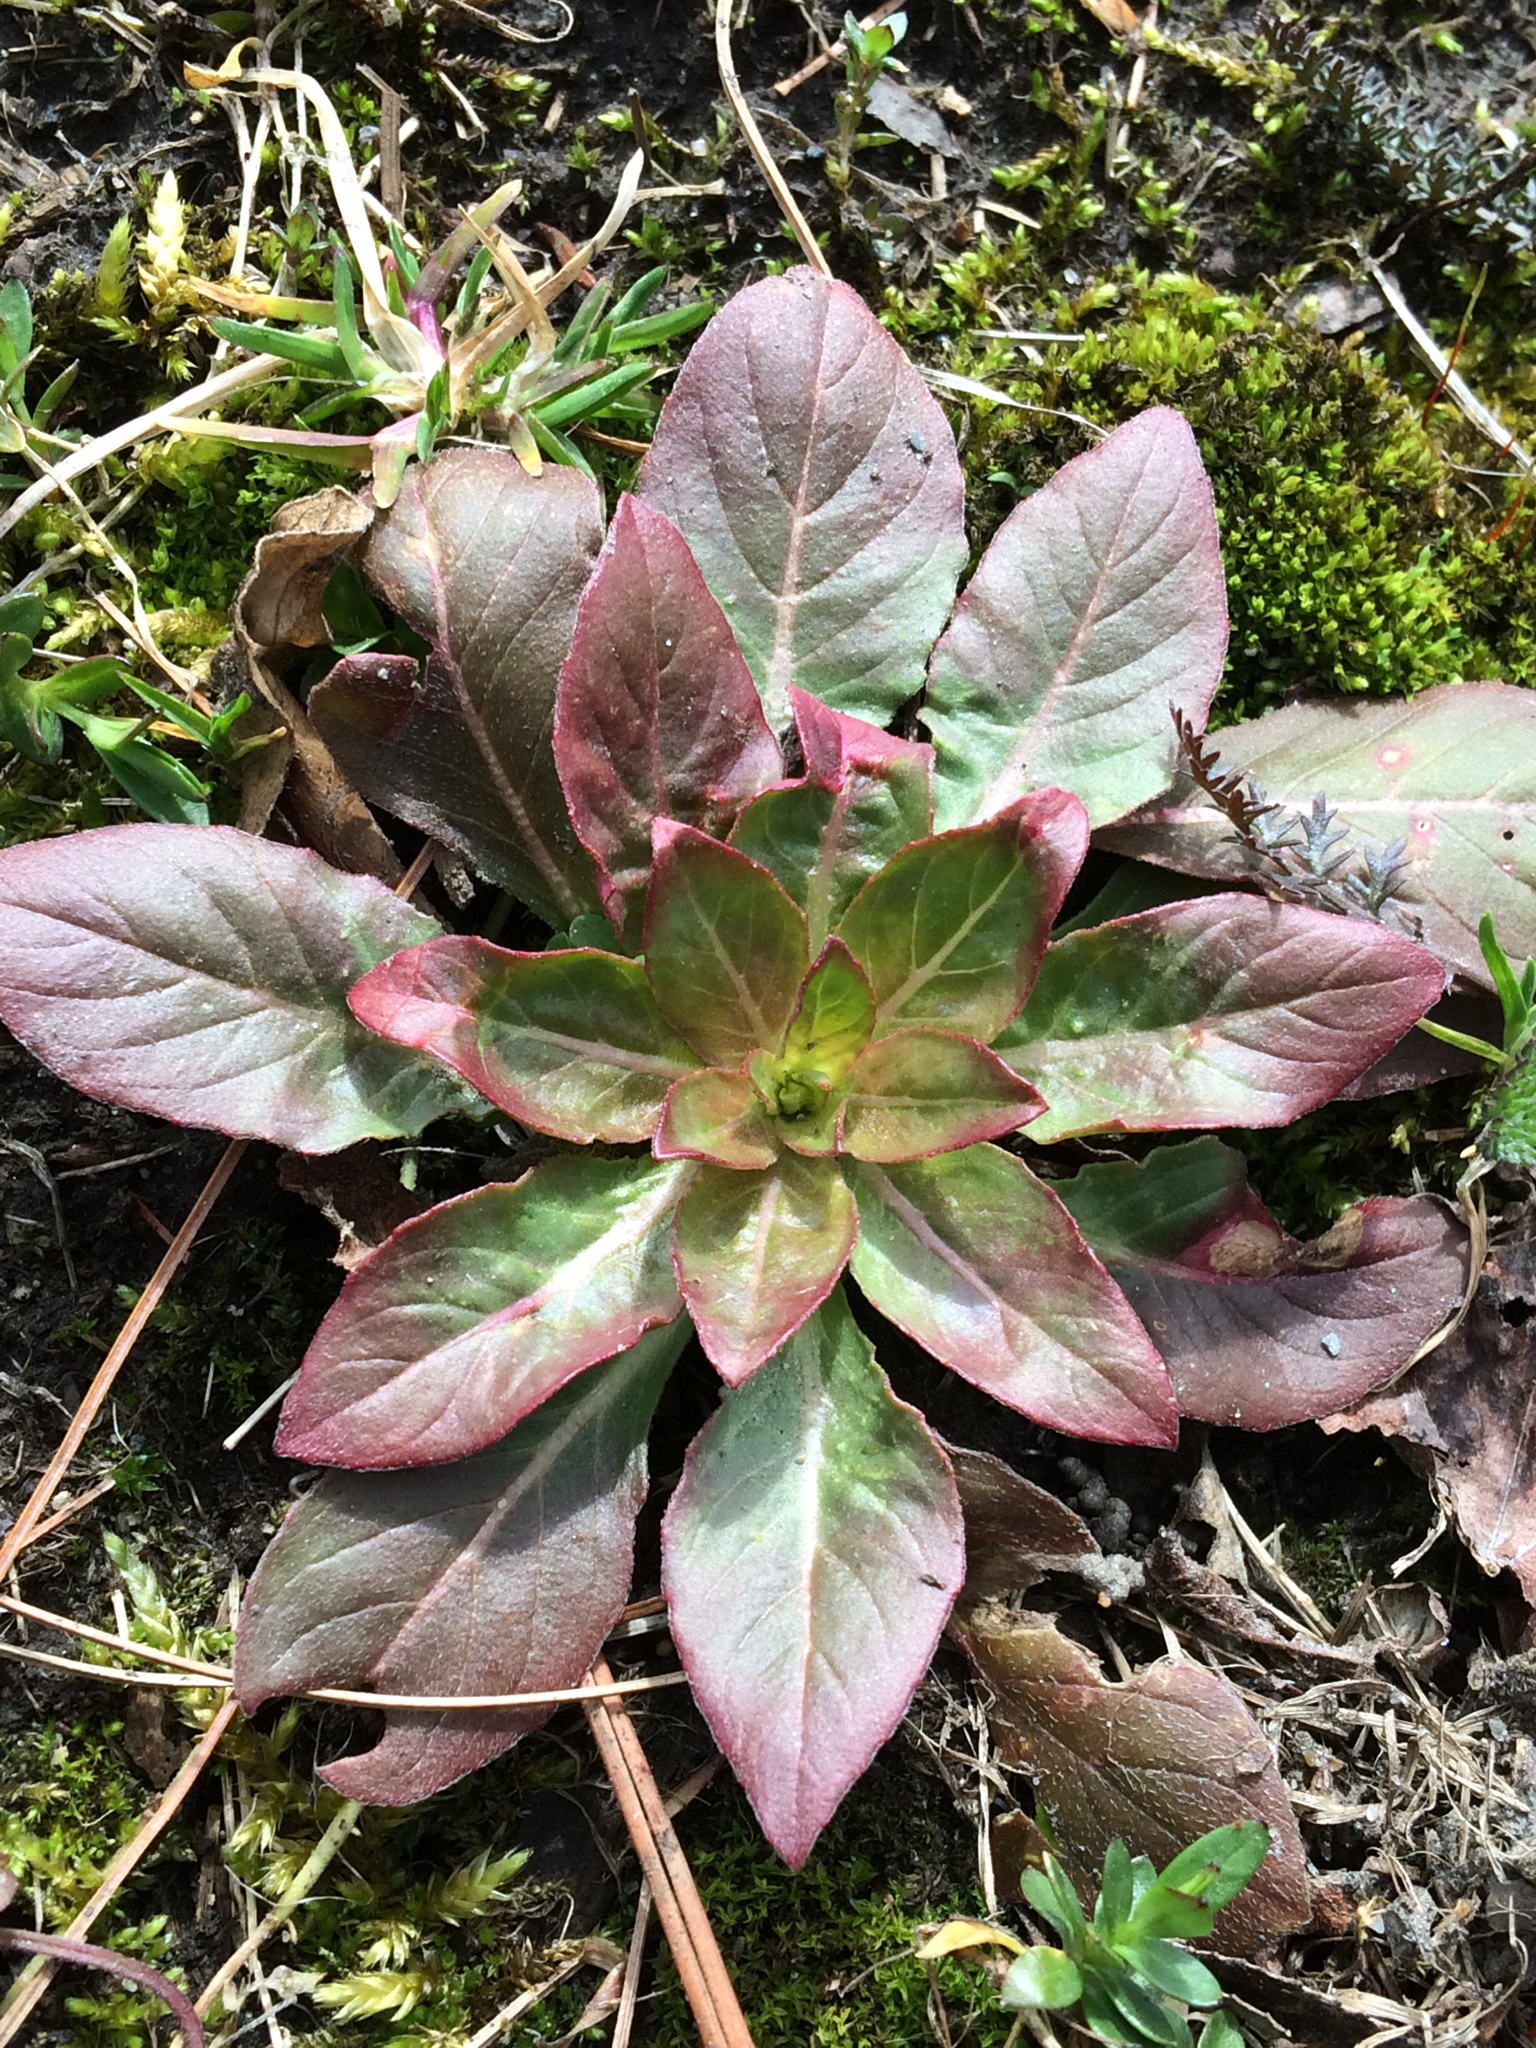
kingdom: Plantae
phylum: Tracheophyta
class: Magnoliopsida
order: Myrtales
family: Onagraceae
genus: Oenothera
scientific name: Oenothera biennis
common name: Common evening-primrose
